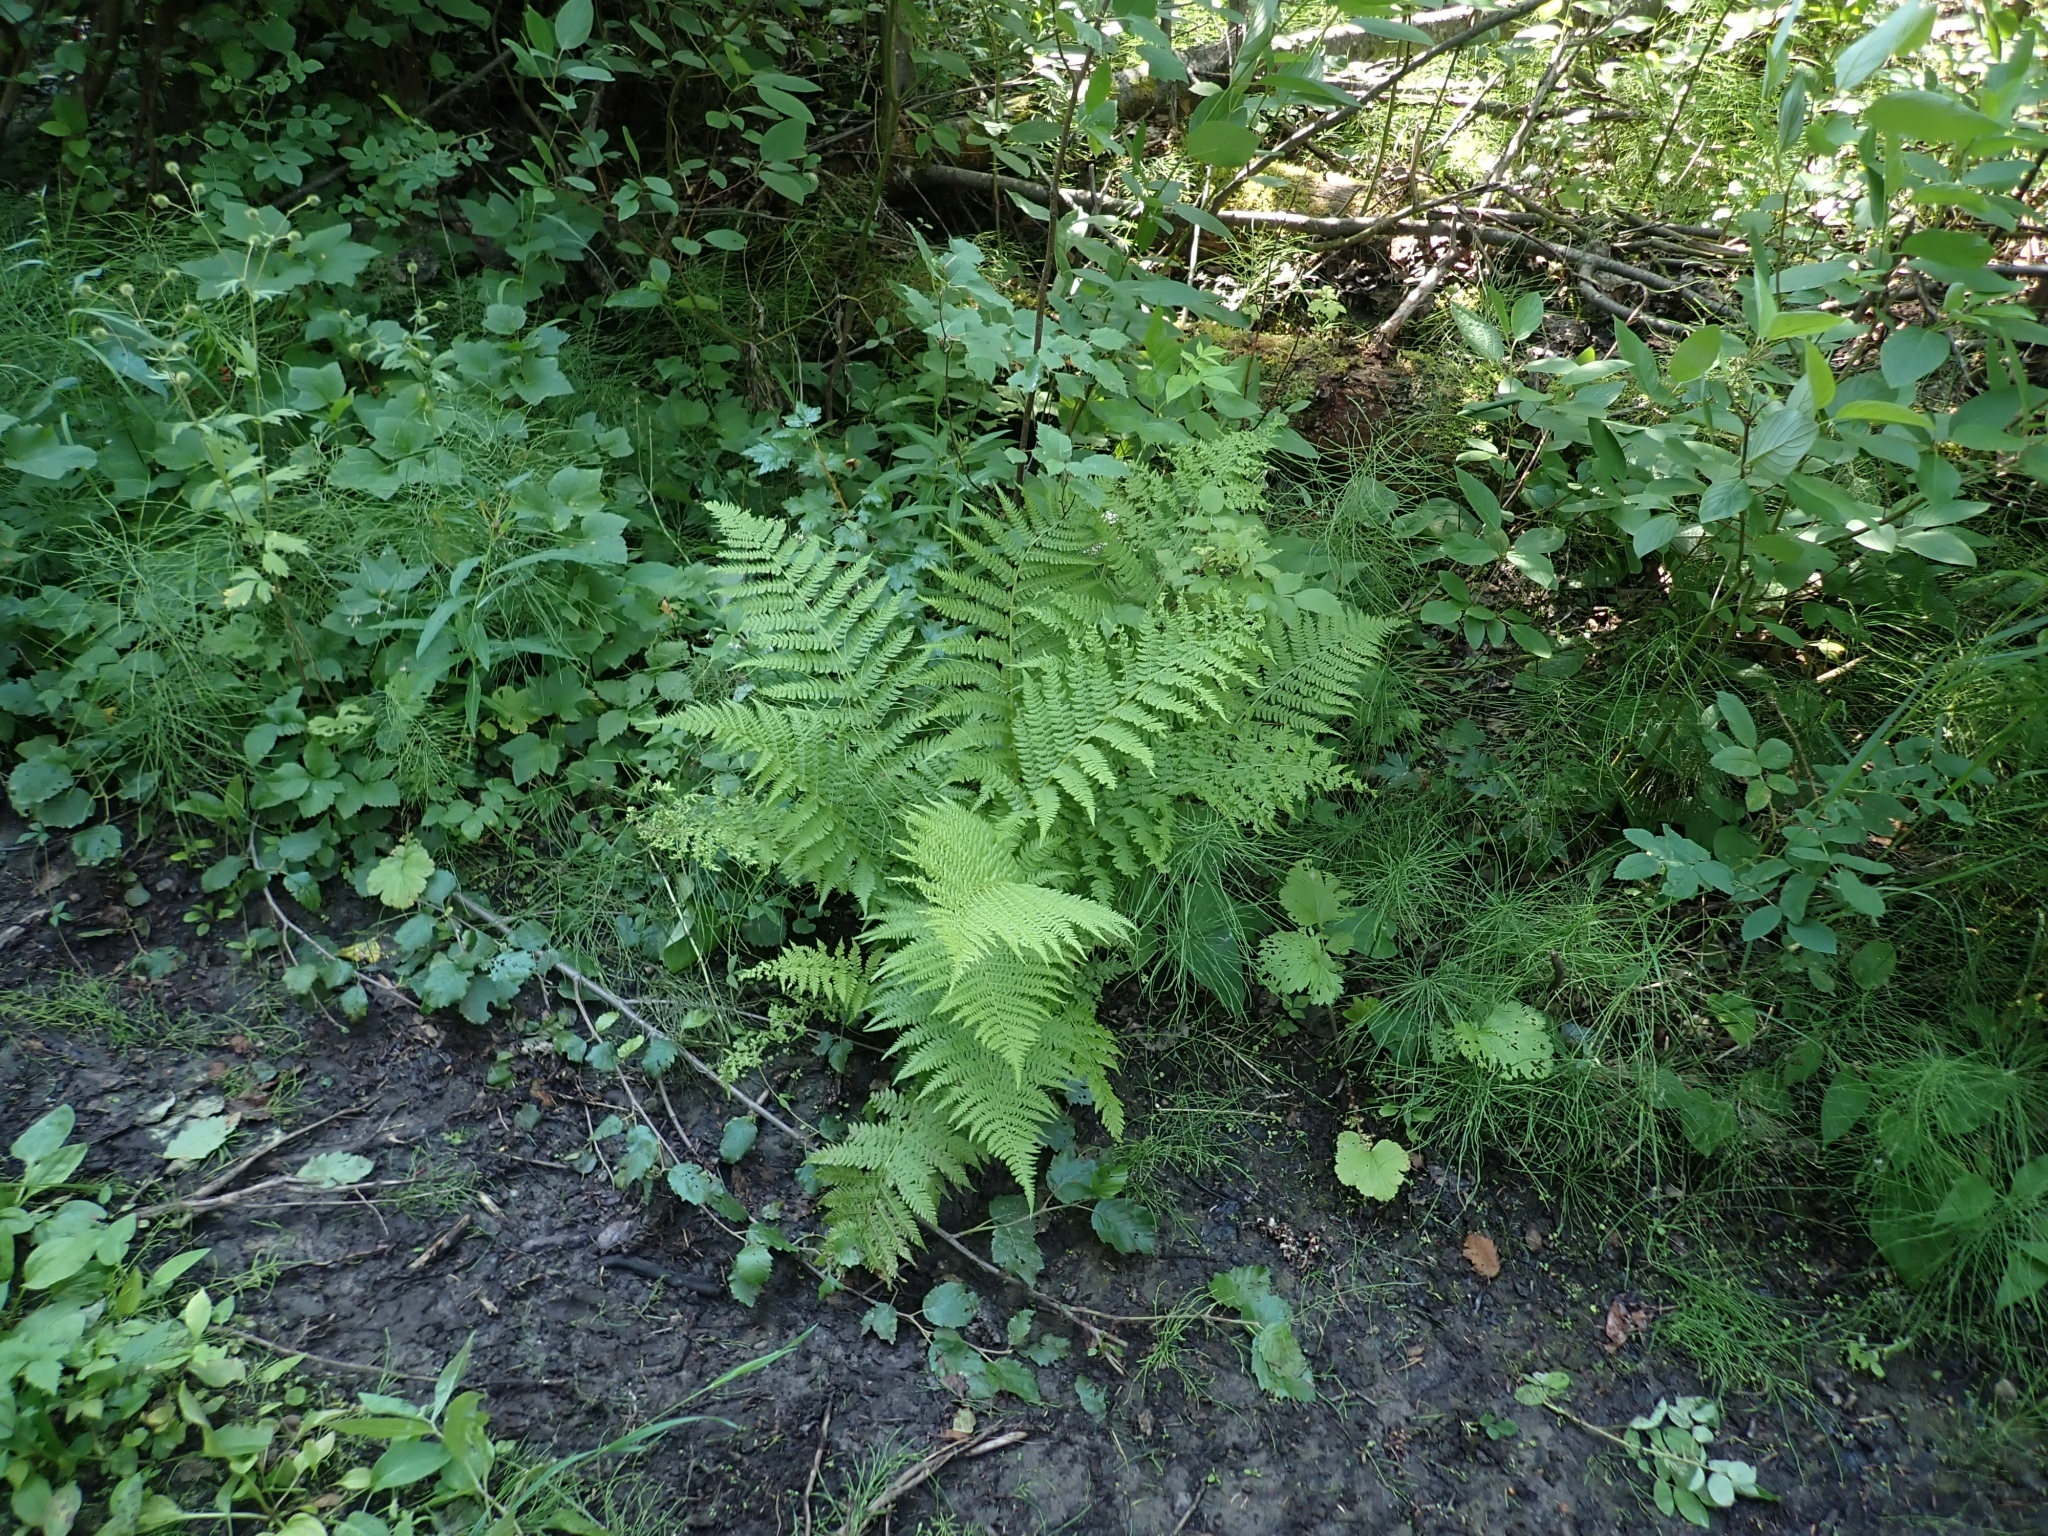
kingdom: Plantae
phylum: Tracheophyta
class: Polypodiopsida
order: Polypodiales
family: Athyriaceae
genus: Athyrium
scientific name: Athyrium cyclosorum
